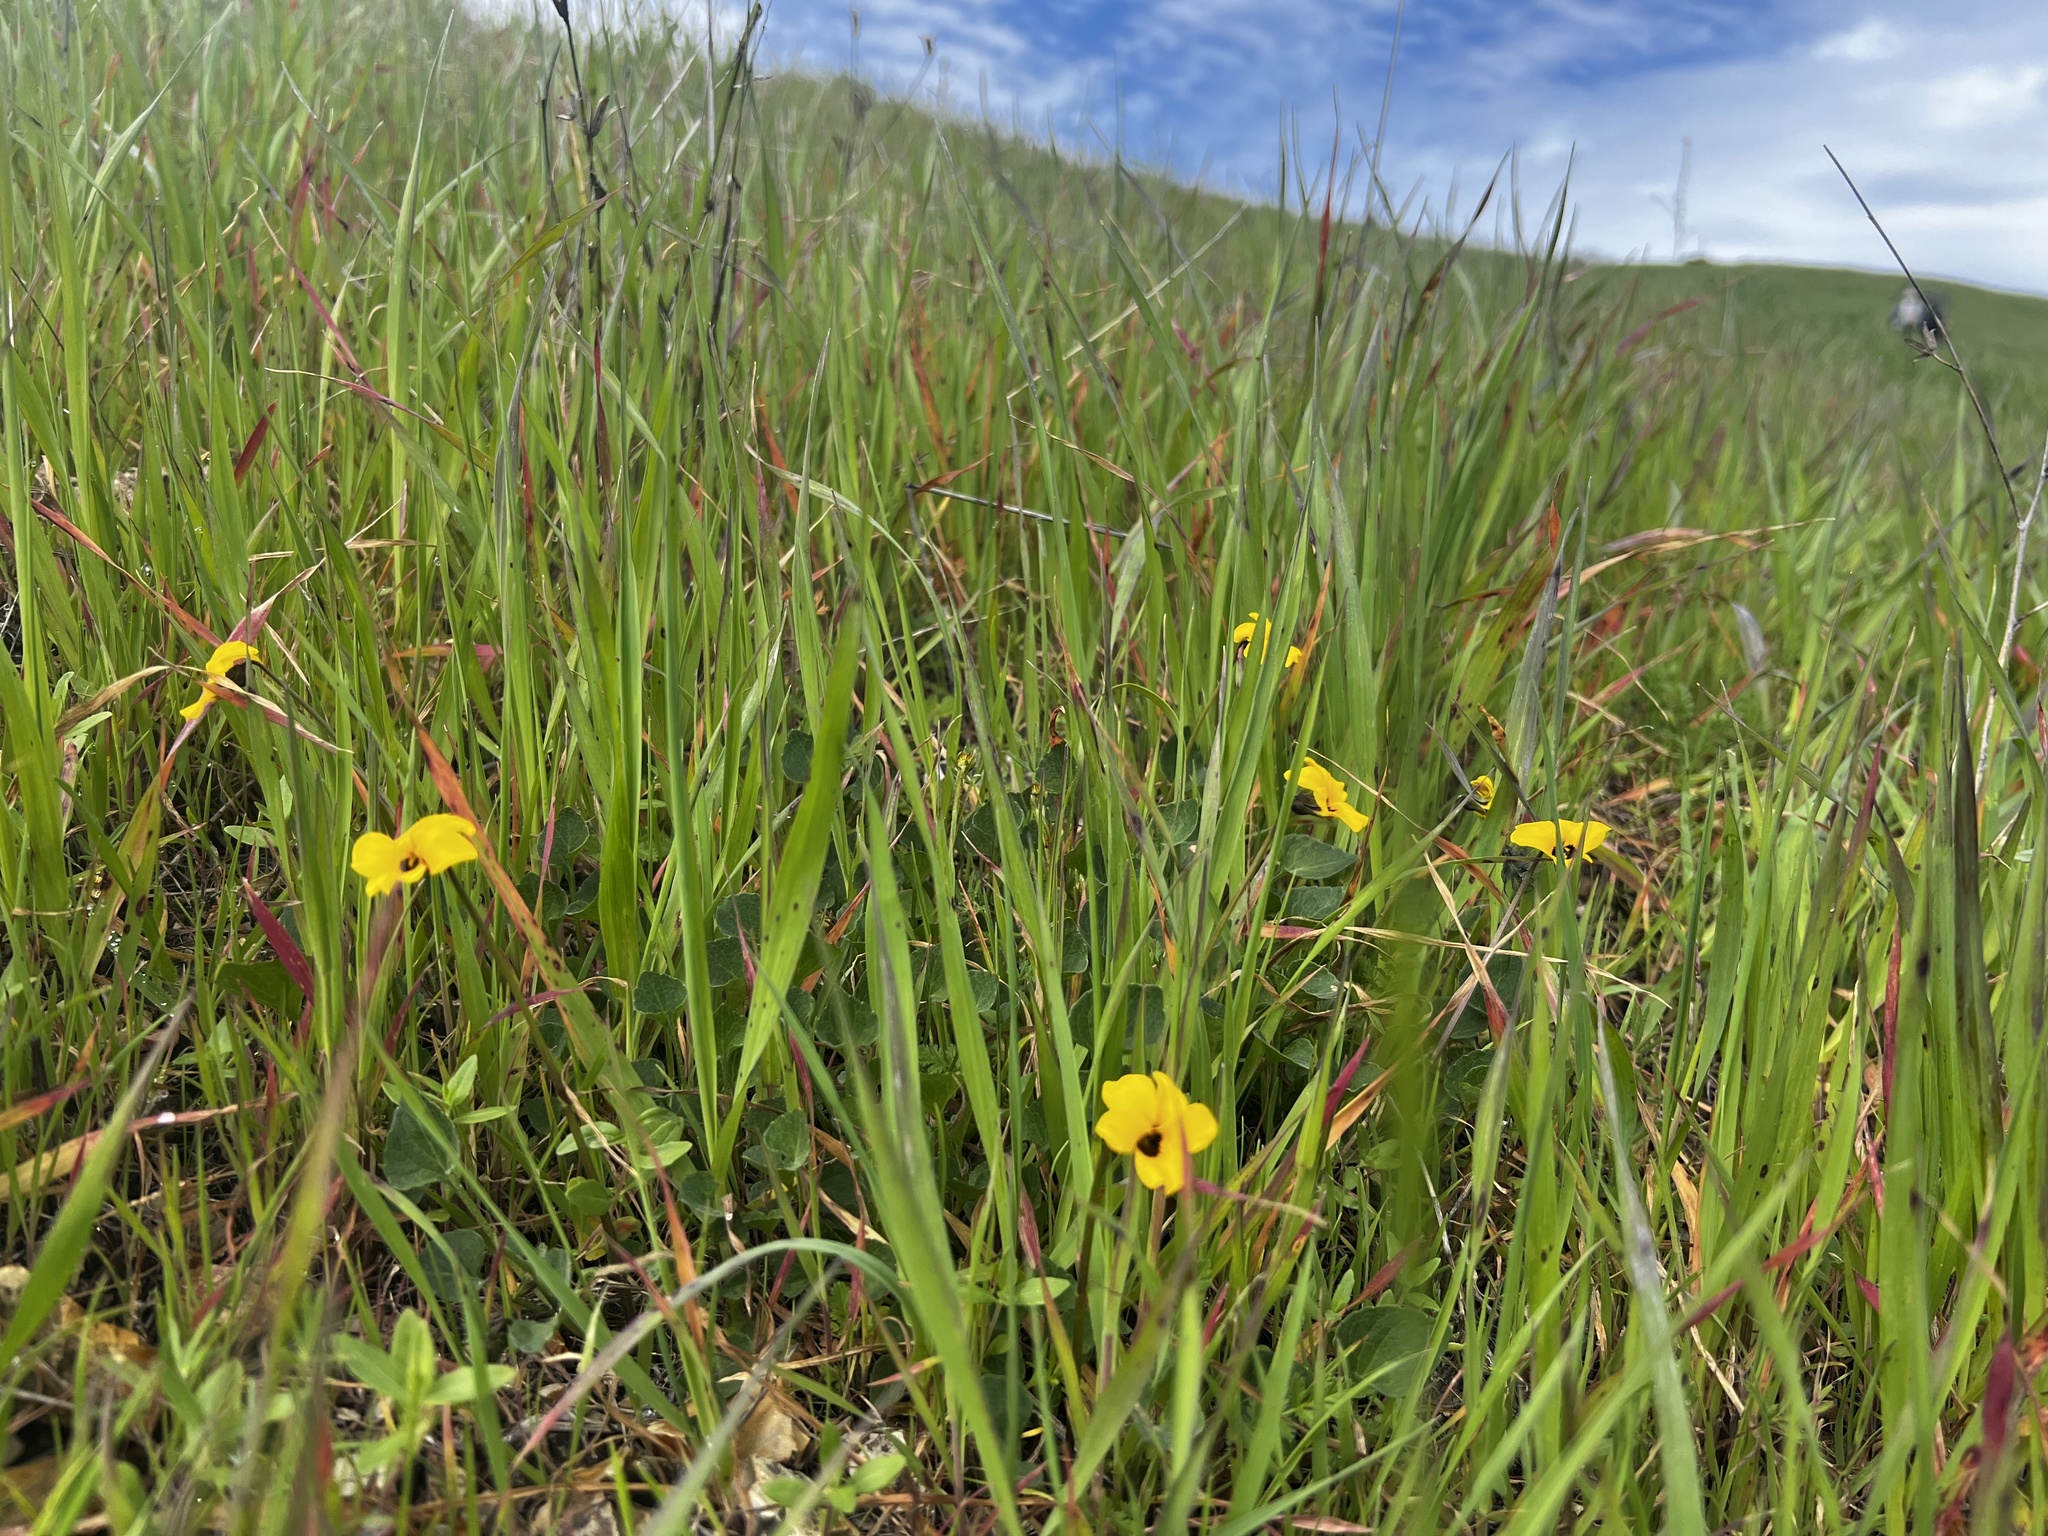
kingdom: Plantae
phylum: Tracheophyta
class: Magnoliopsida
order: Malpighiales
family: Violaceae
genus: Viola
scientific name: Viola pedunculata
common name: California golden violet
